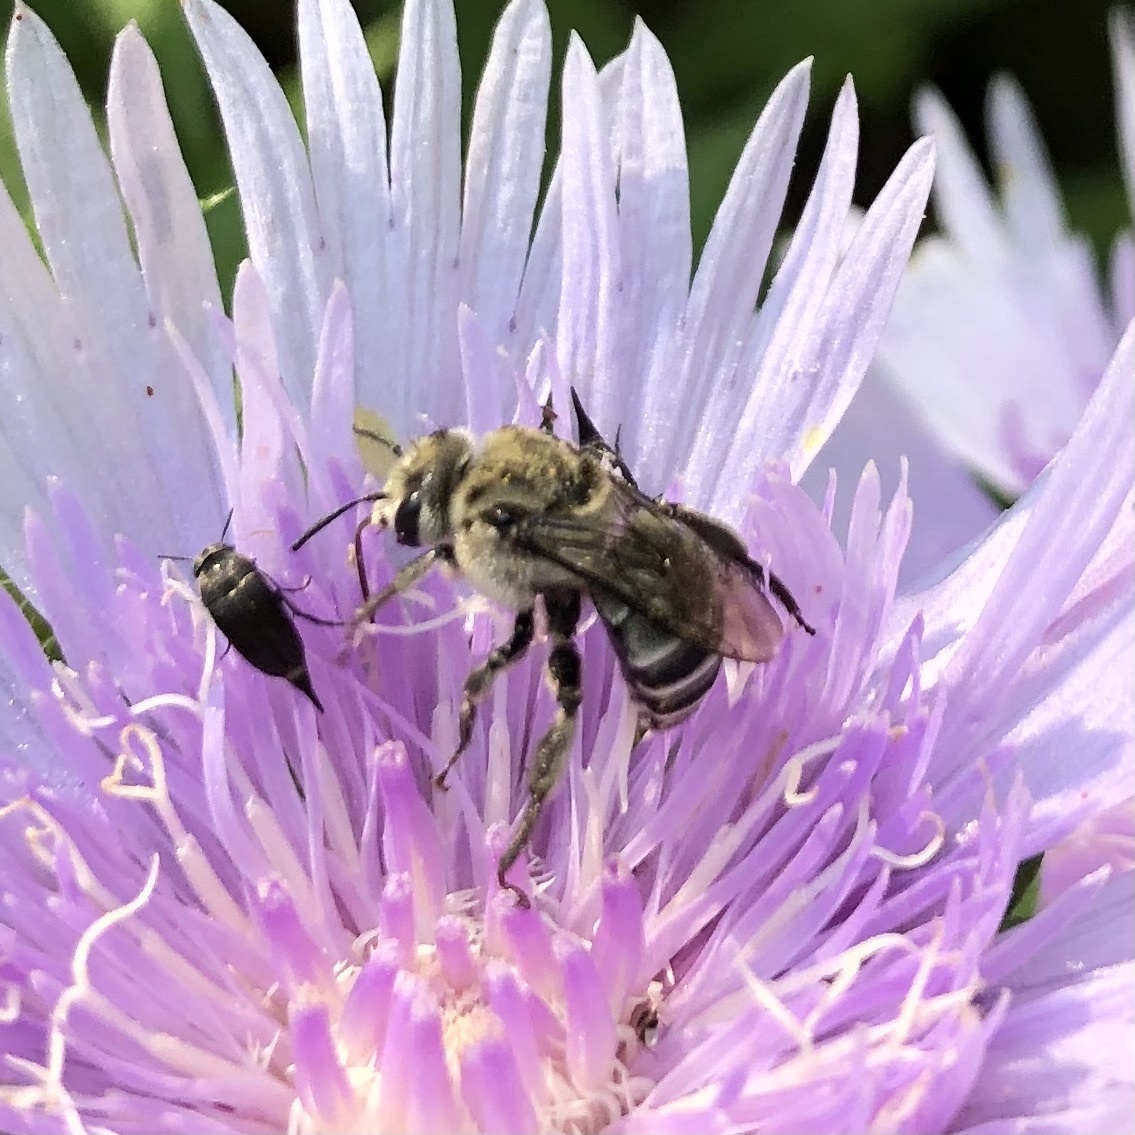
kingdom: Animalia
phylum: Arthropoda
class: Insecta
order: Hymenoptera
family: Apidae
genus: Melitoma
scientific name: Melitoma taurea
